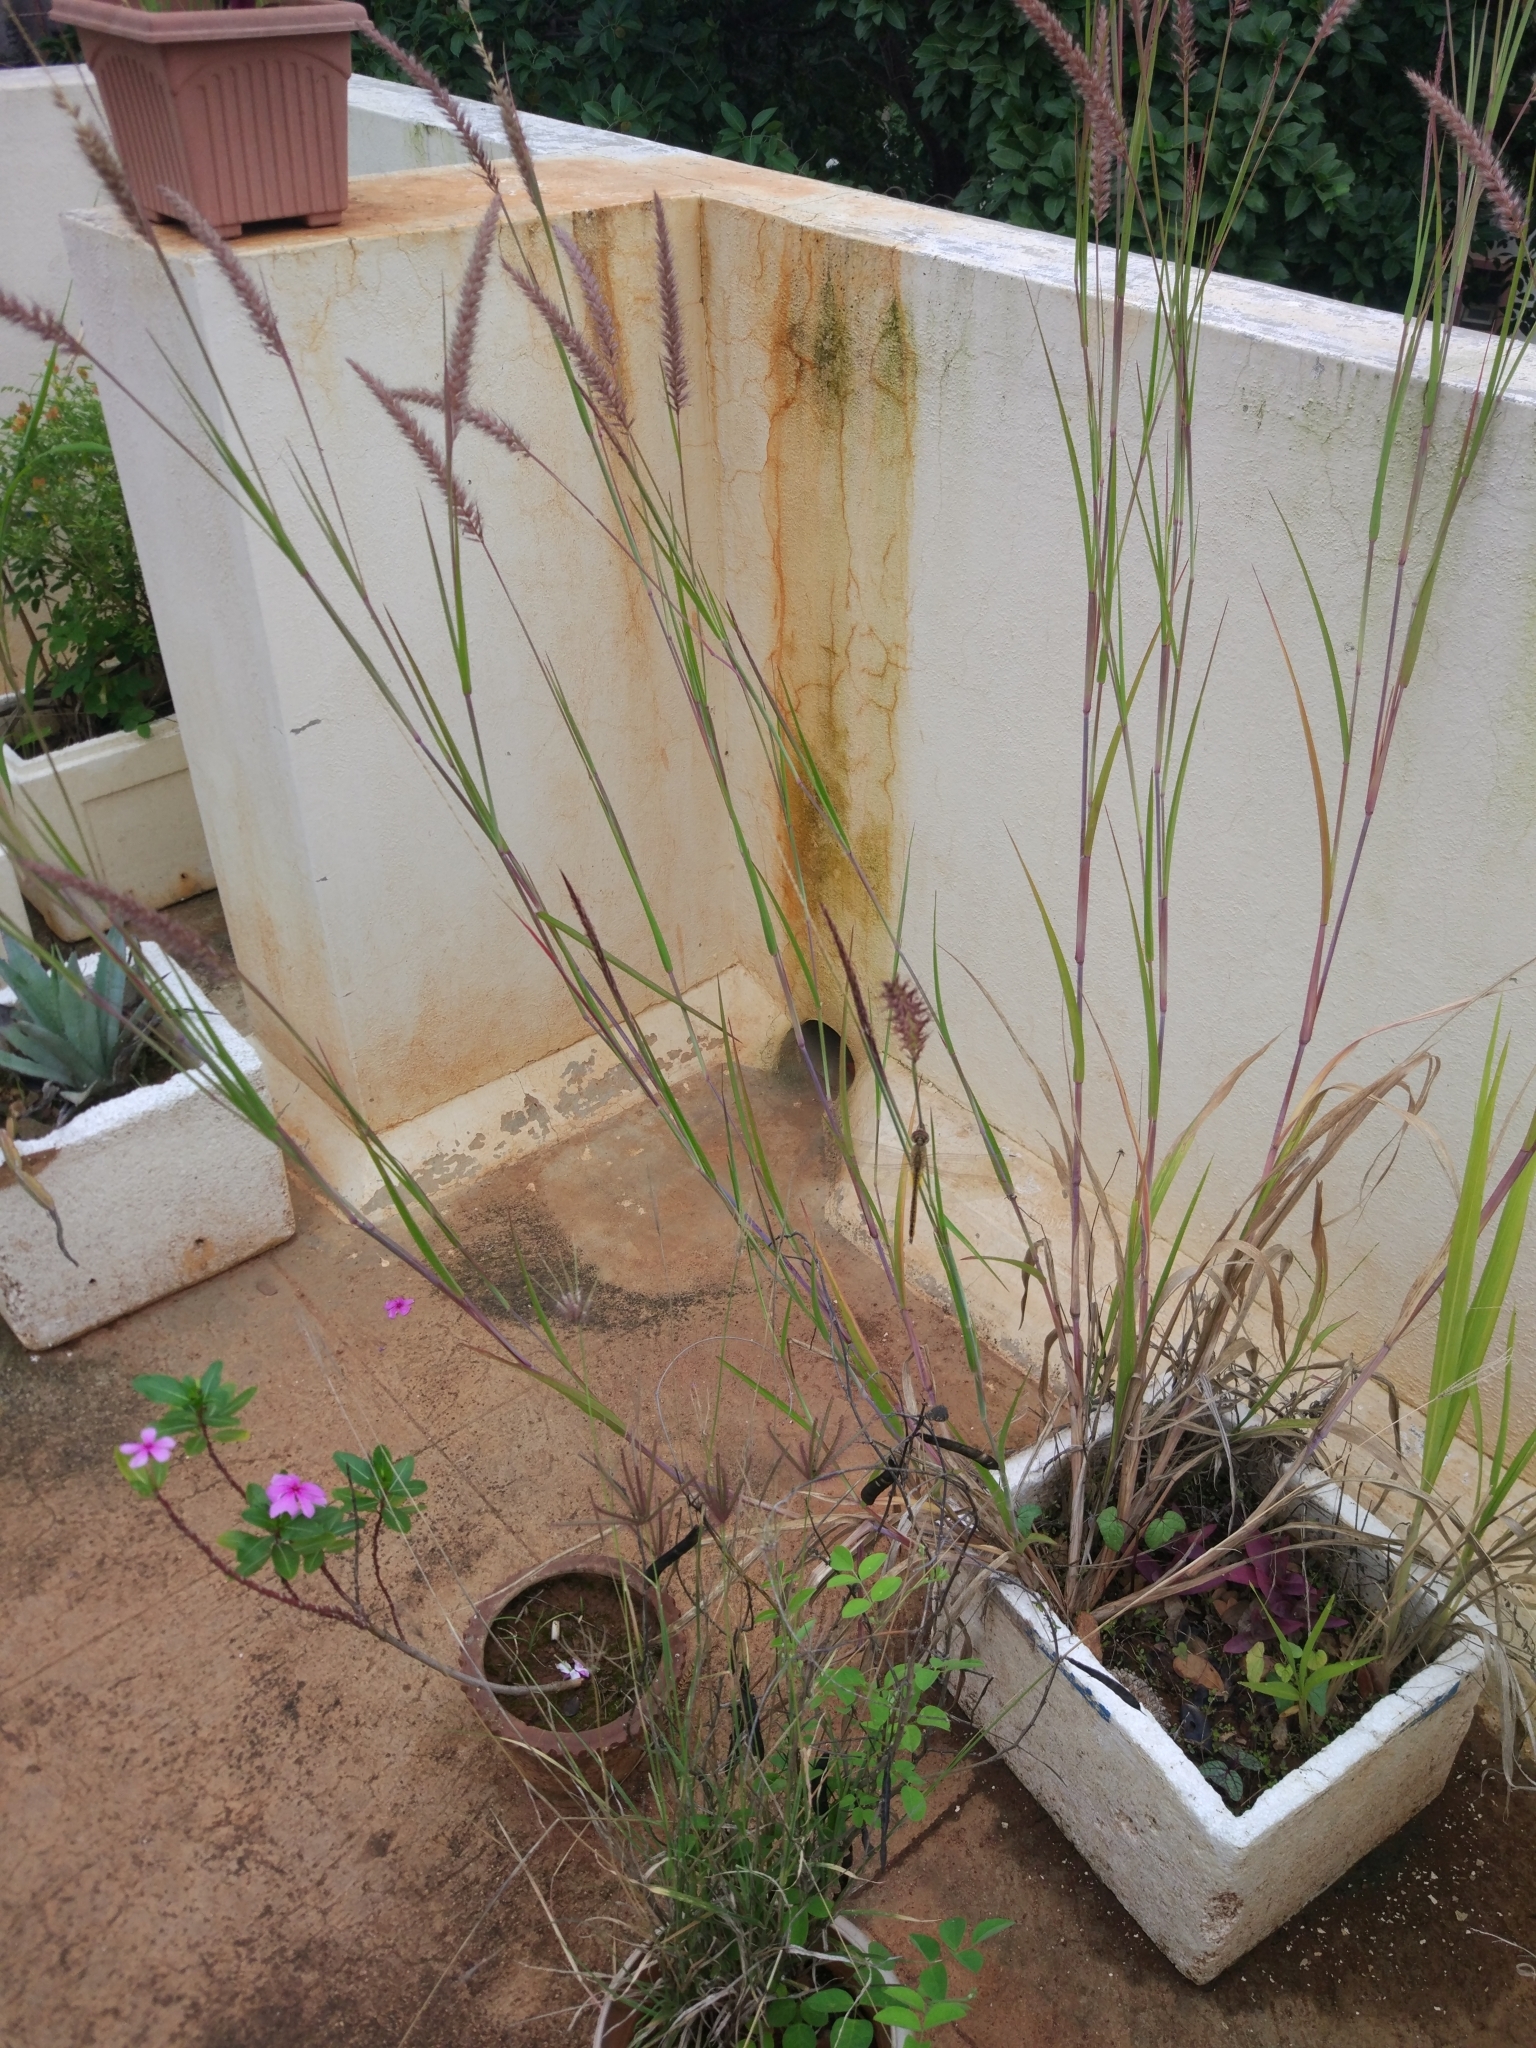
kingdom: Animalia
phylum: Arthropoda
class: Insecta
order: Odonata
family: Libellulidae
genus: Pantala
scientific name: Pantala flavescens
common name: Wandering glider
